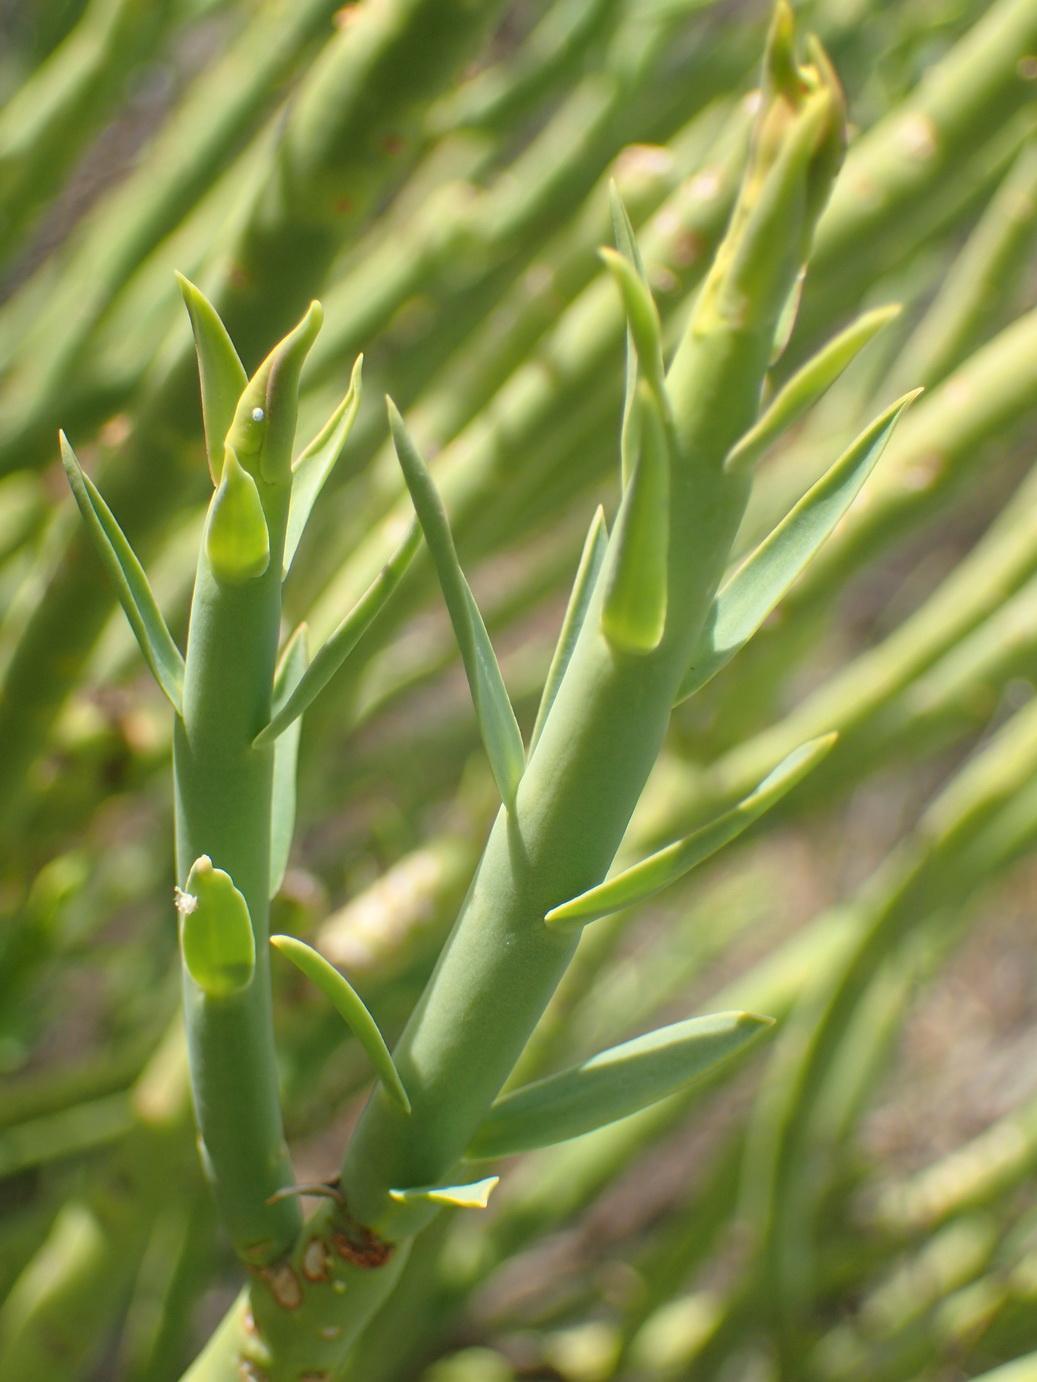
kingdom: Plantae
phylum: Tracheophyta
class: Magnoliopsida
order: Malpighiales
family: Euphorbiaceae
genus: Euphorbia
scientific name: Euphorbia mauritanica
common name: Jackal's-food
